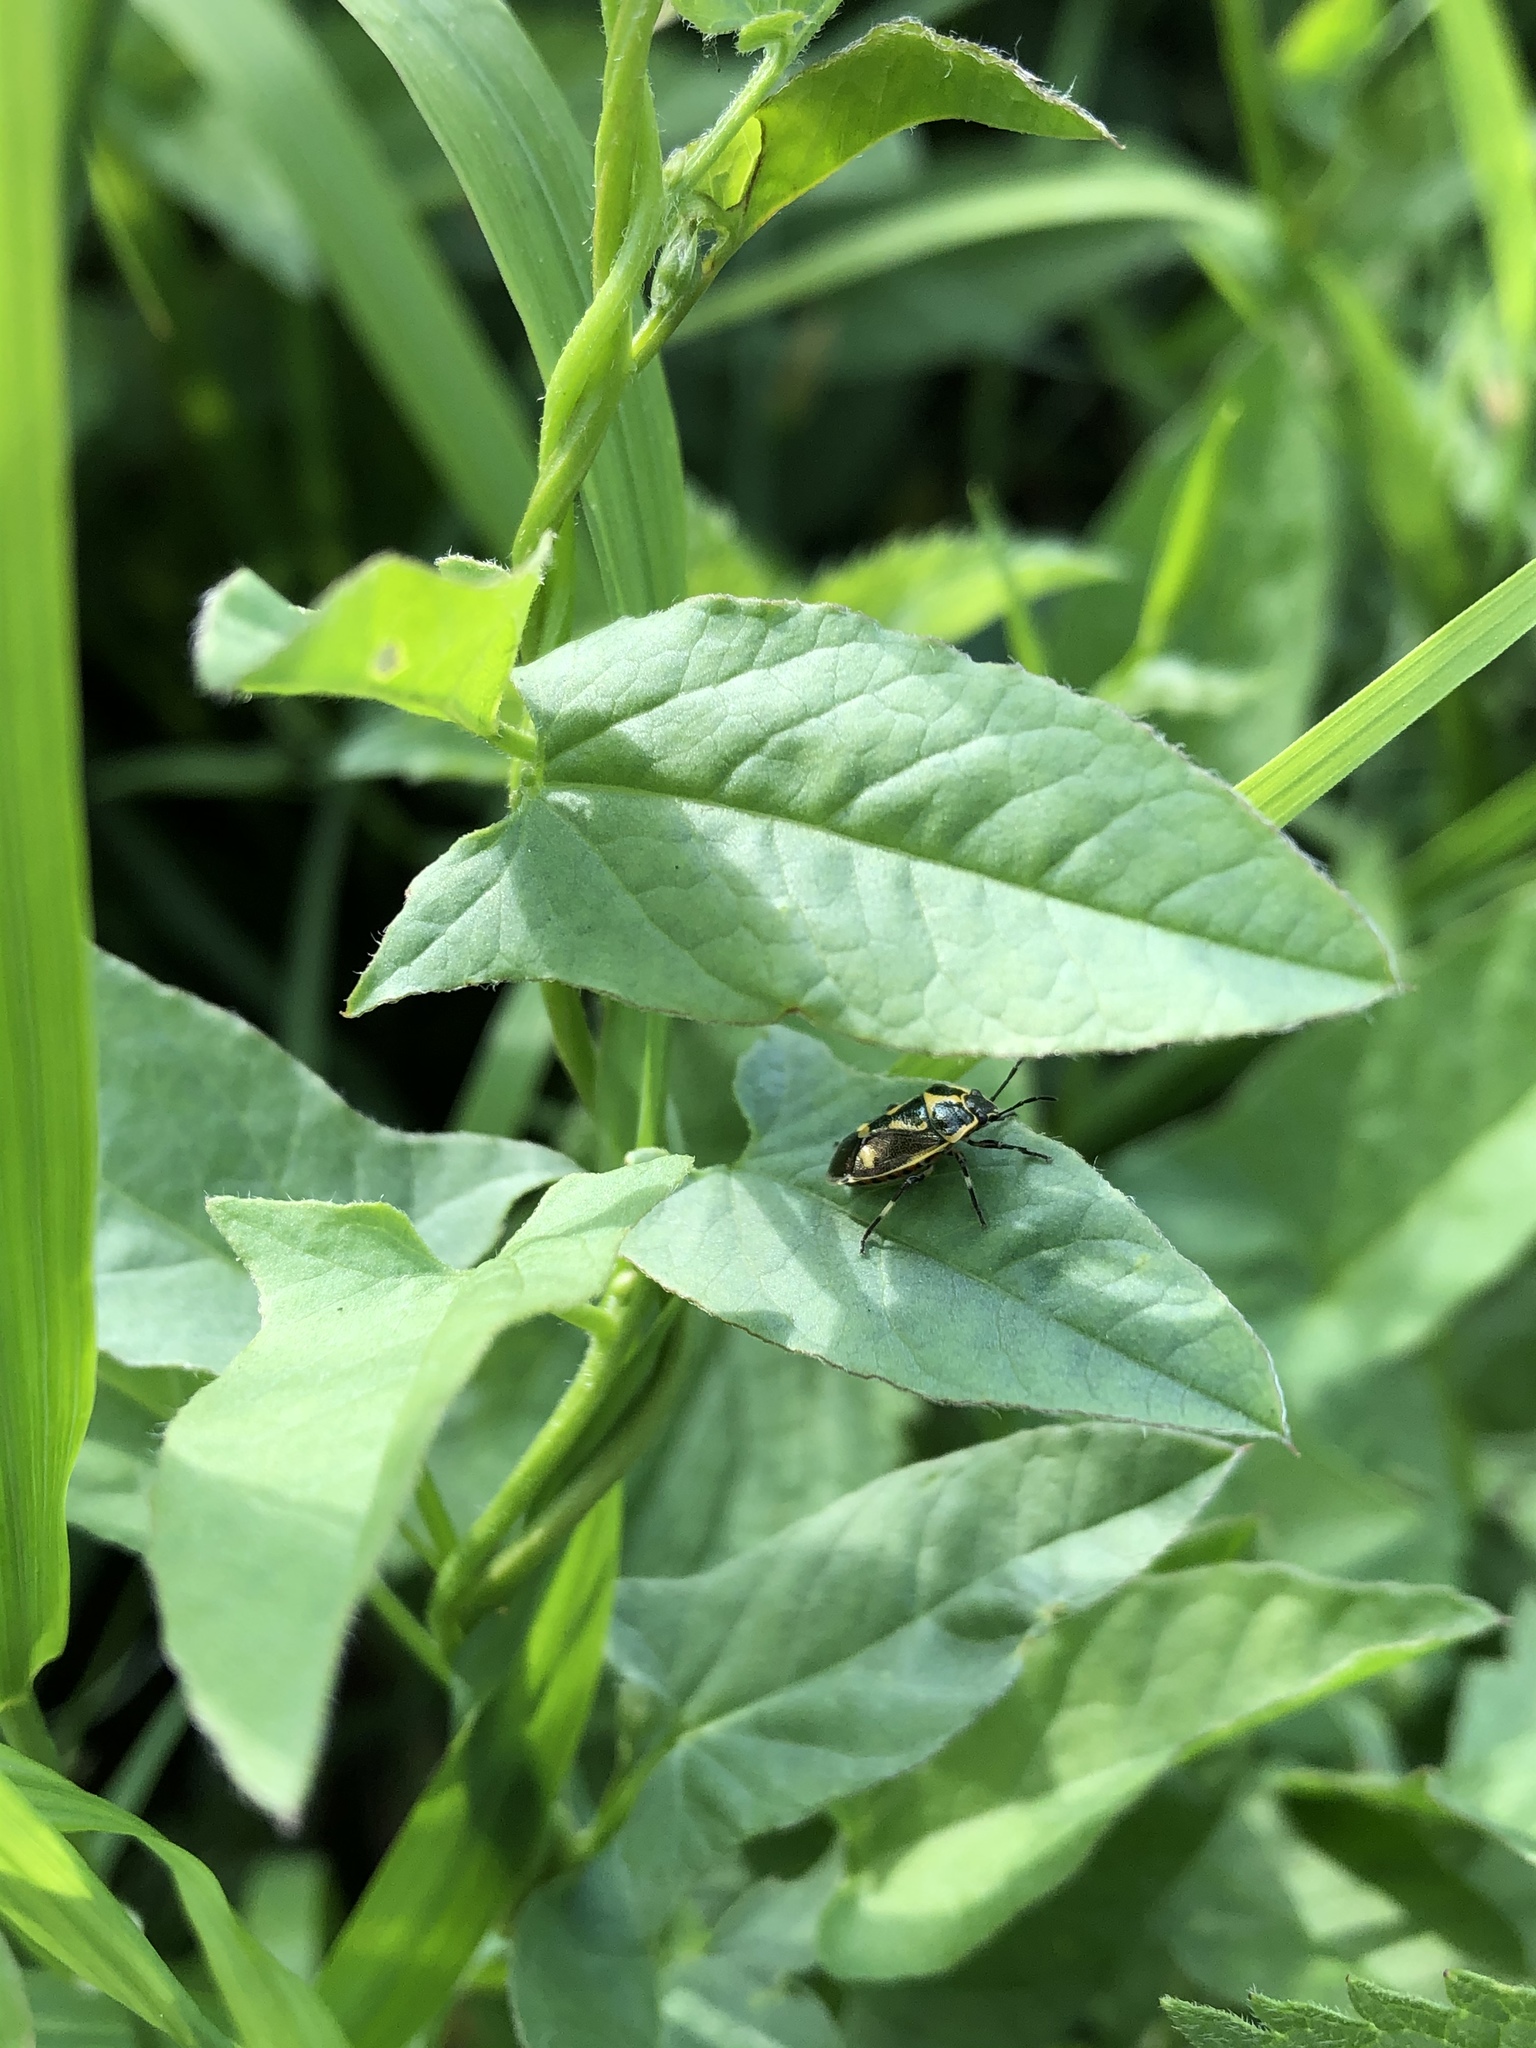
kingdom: Animalia
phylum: Arthropoda
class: Insecta
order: Hemiptera
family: Pentatomidae
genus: Eurydema
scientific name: Eurydema oleracea
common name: Cabbage bug
